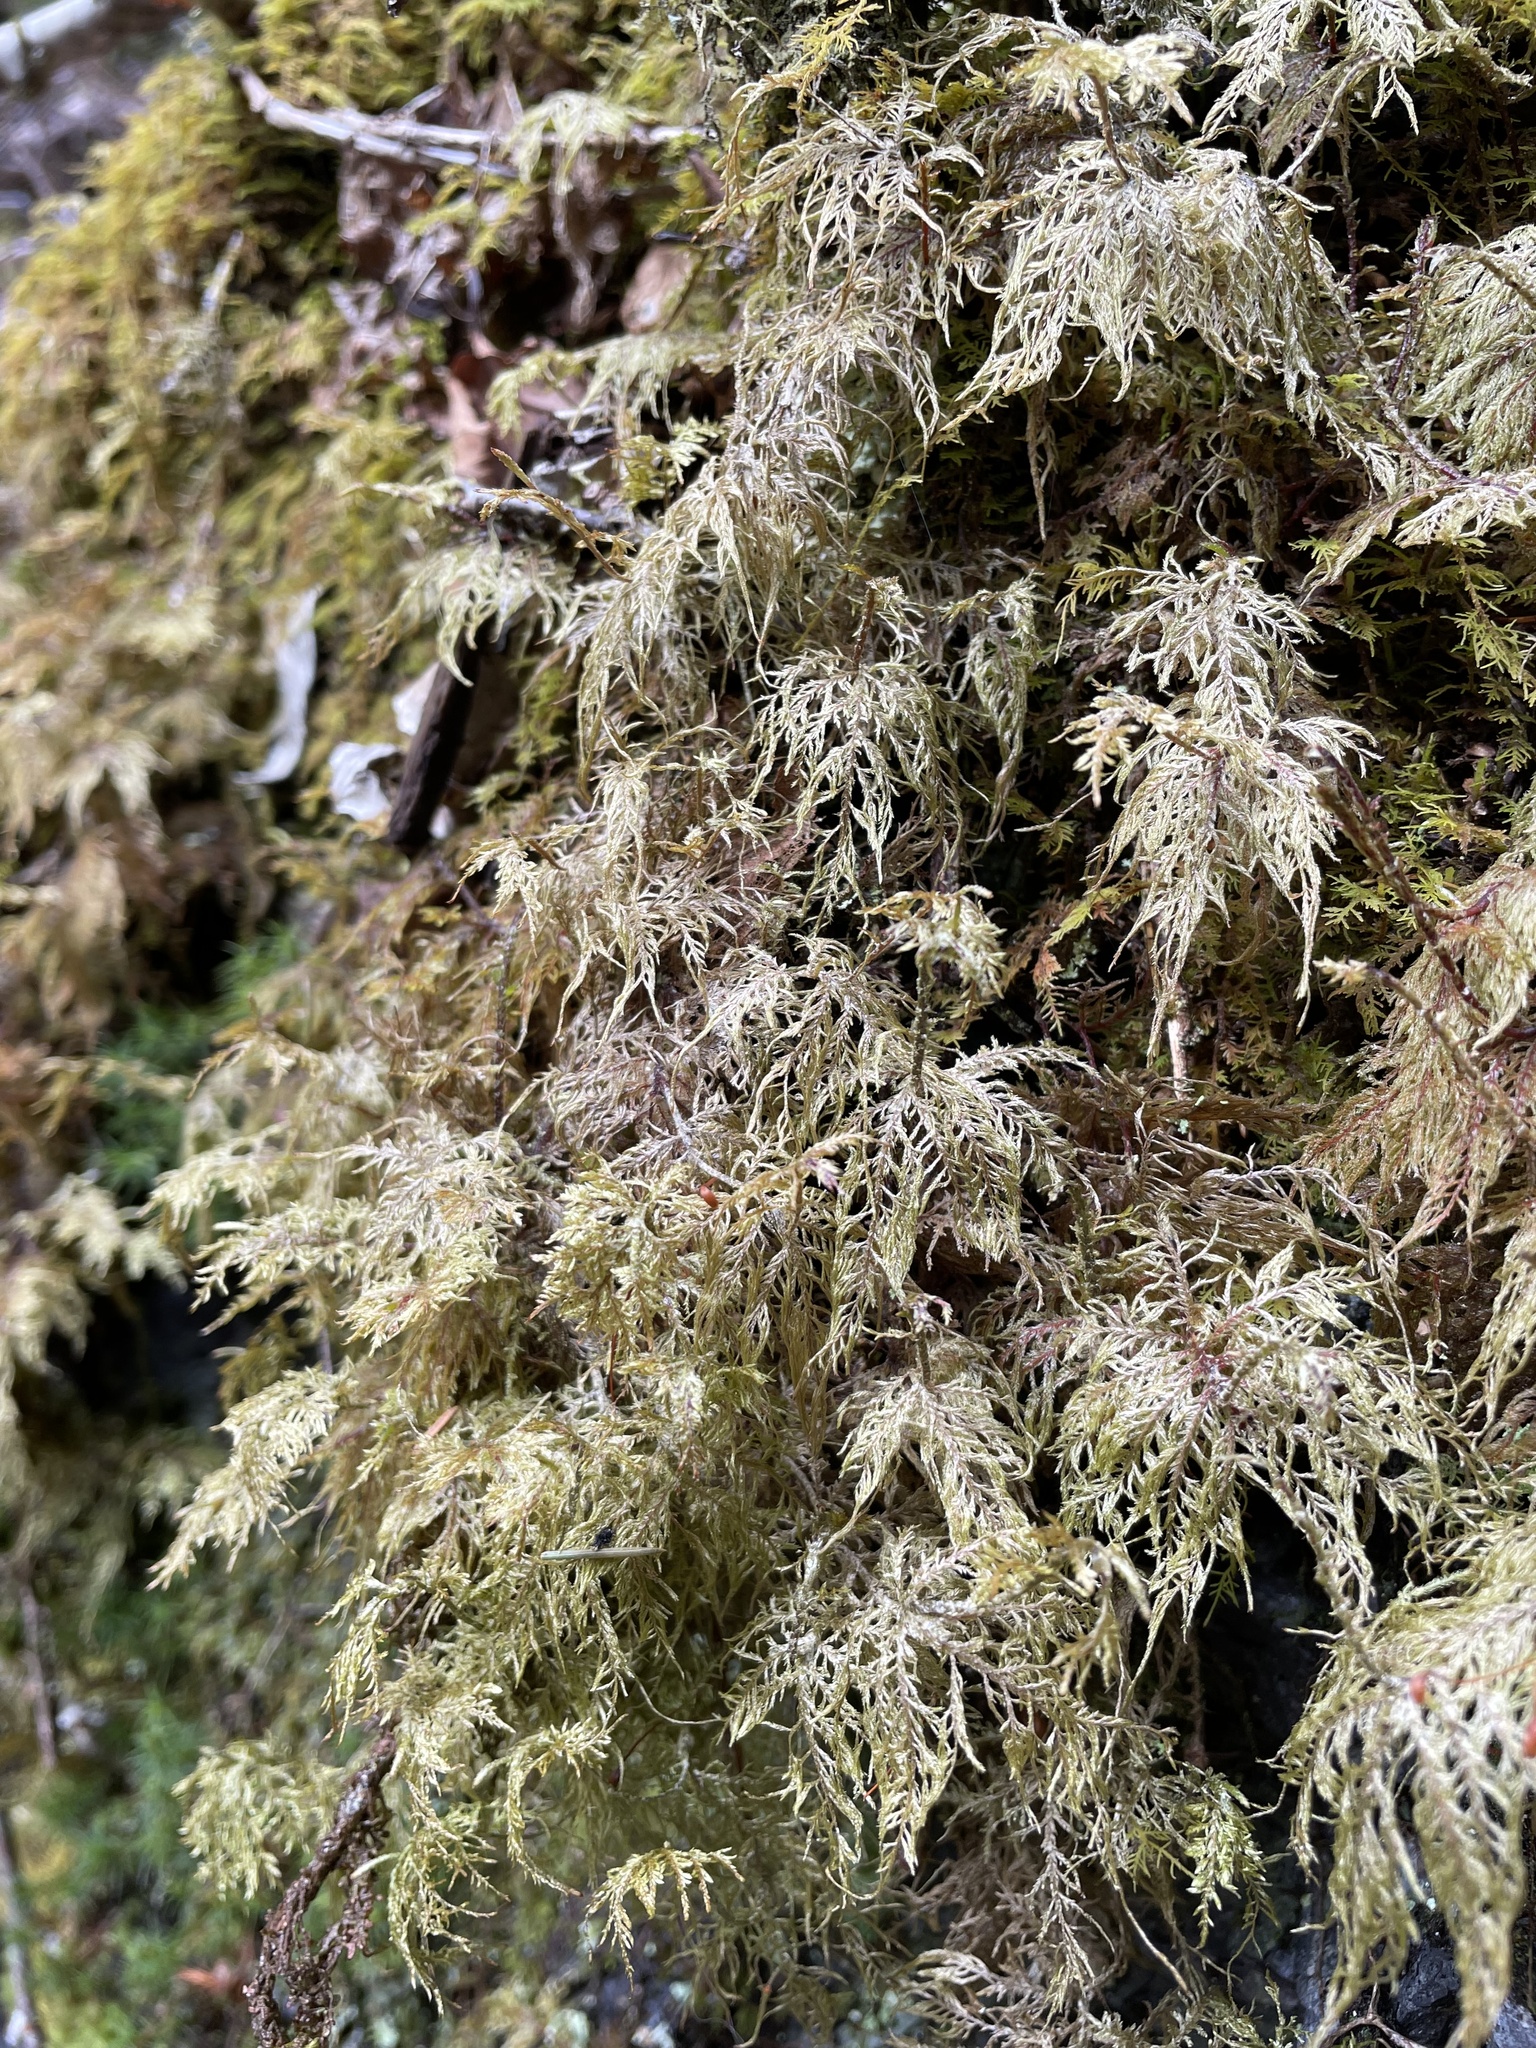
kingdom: Plantae
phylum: Bryophyta
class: Bryopsida
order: Hypnales
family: Hylocomiaceae
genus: Hylocomium
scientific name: Hylocomium splendens
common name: Stairstep moss
